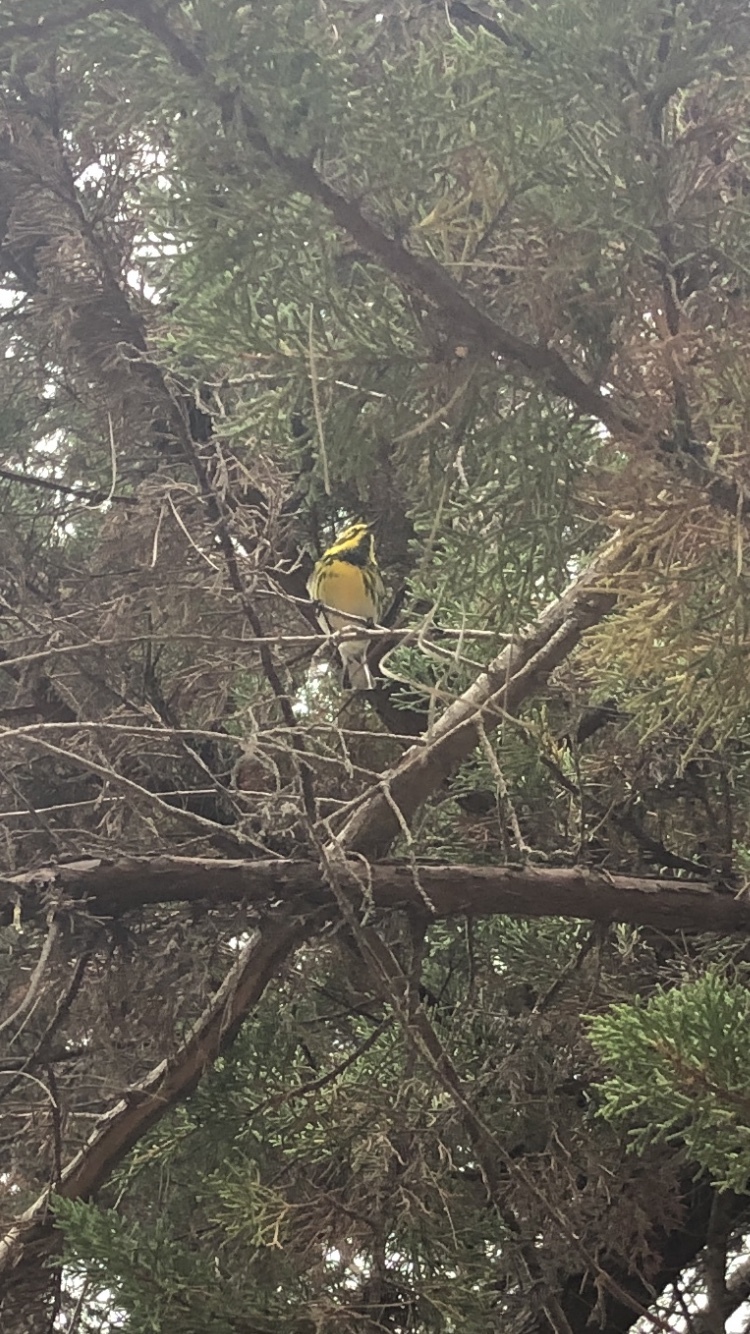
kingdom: Animalia
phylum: Chordata
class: Aves
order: Passeriformes
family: Parulidae
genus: Setophaga
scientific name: Setophaga townsendi
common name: Townsend's warbler
